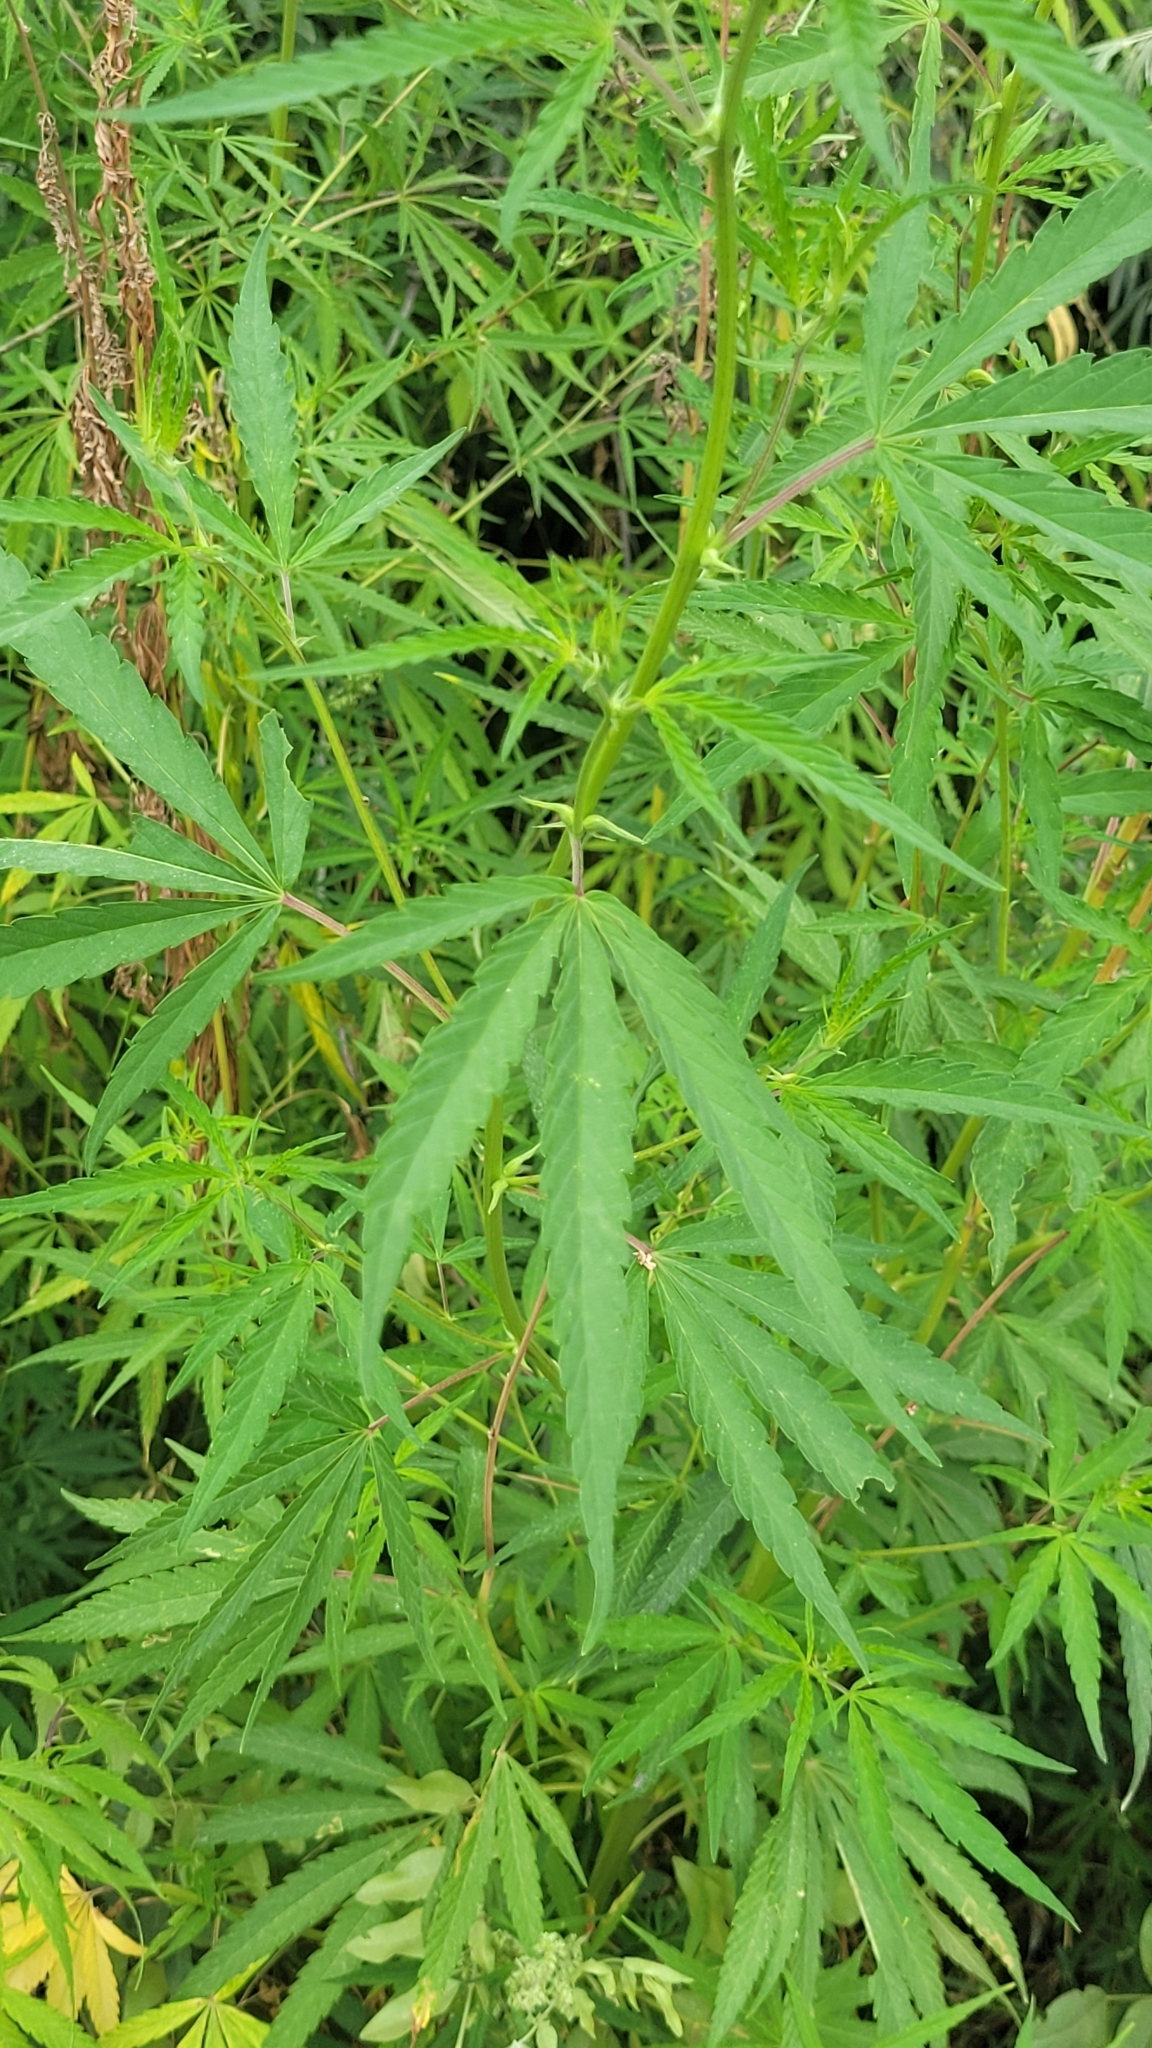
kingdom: Plantae
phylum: Tracheophyta
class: Magnoliopsida
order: Rosales
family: Cannabaceae
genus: Cannabis
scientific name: Cannabis sativa
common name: Hemp
